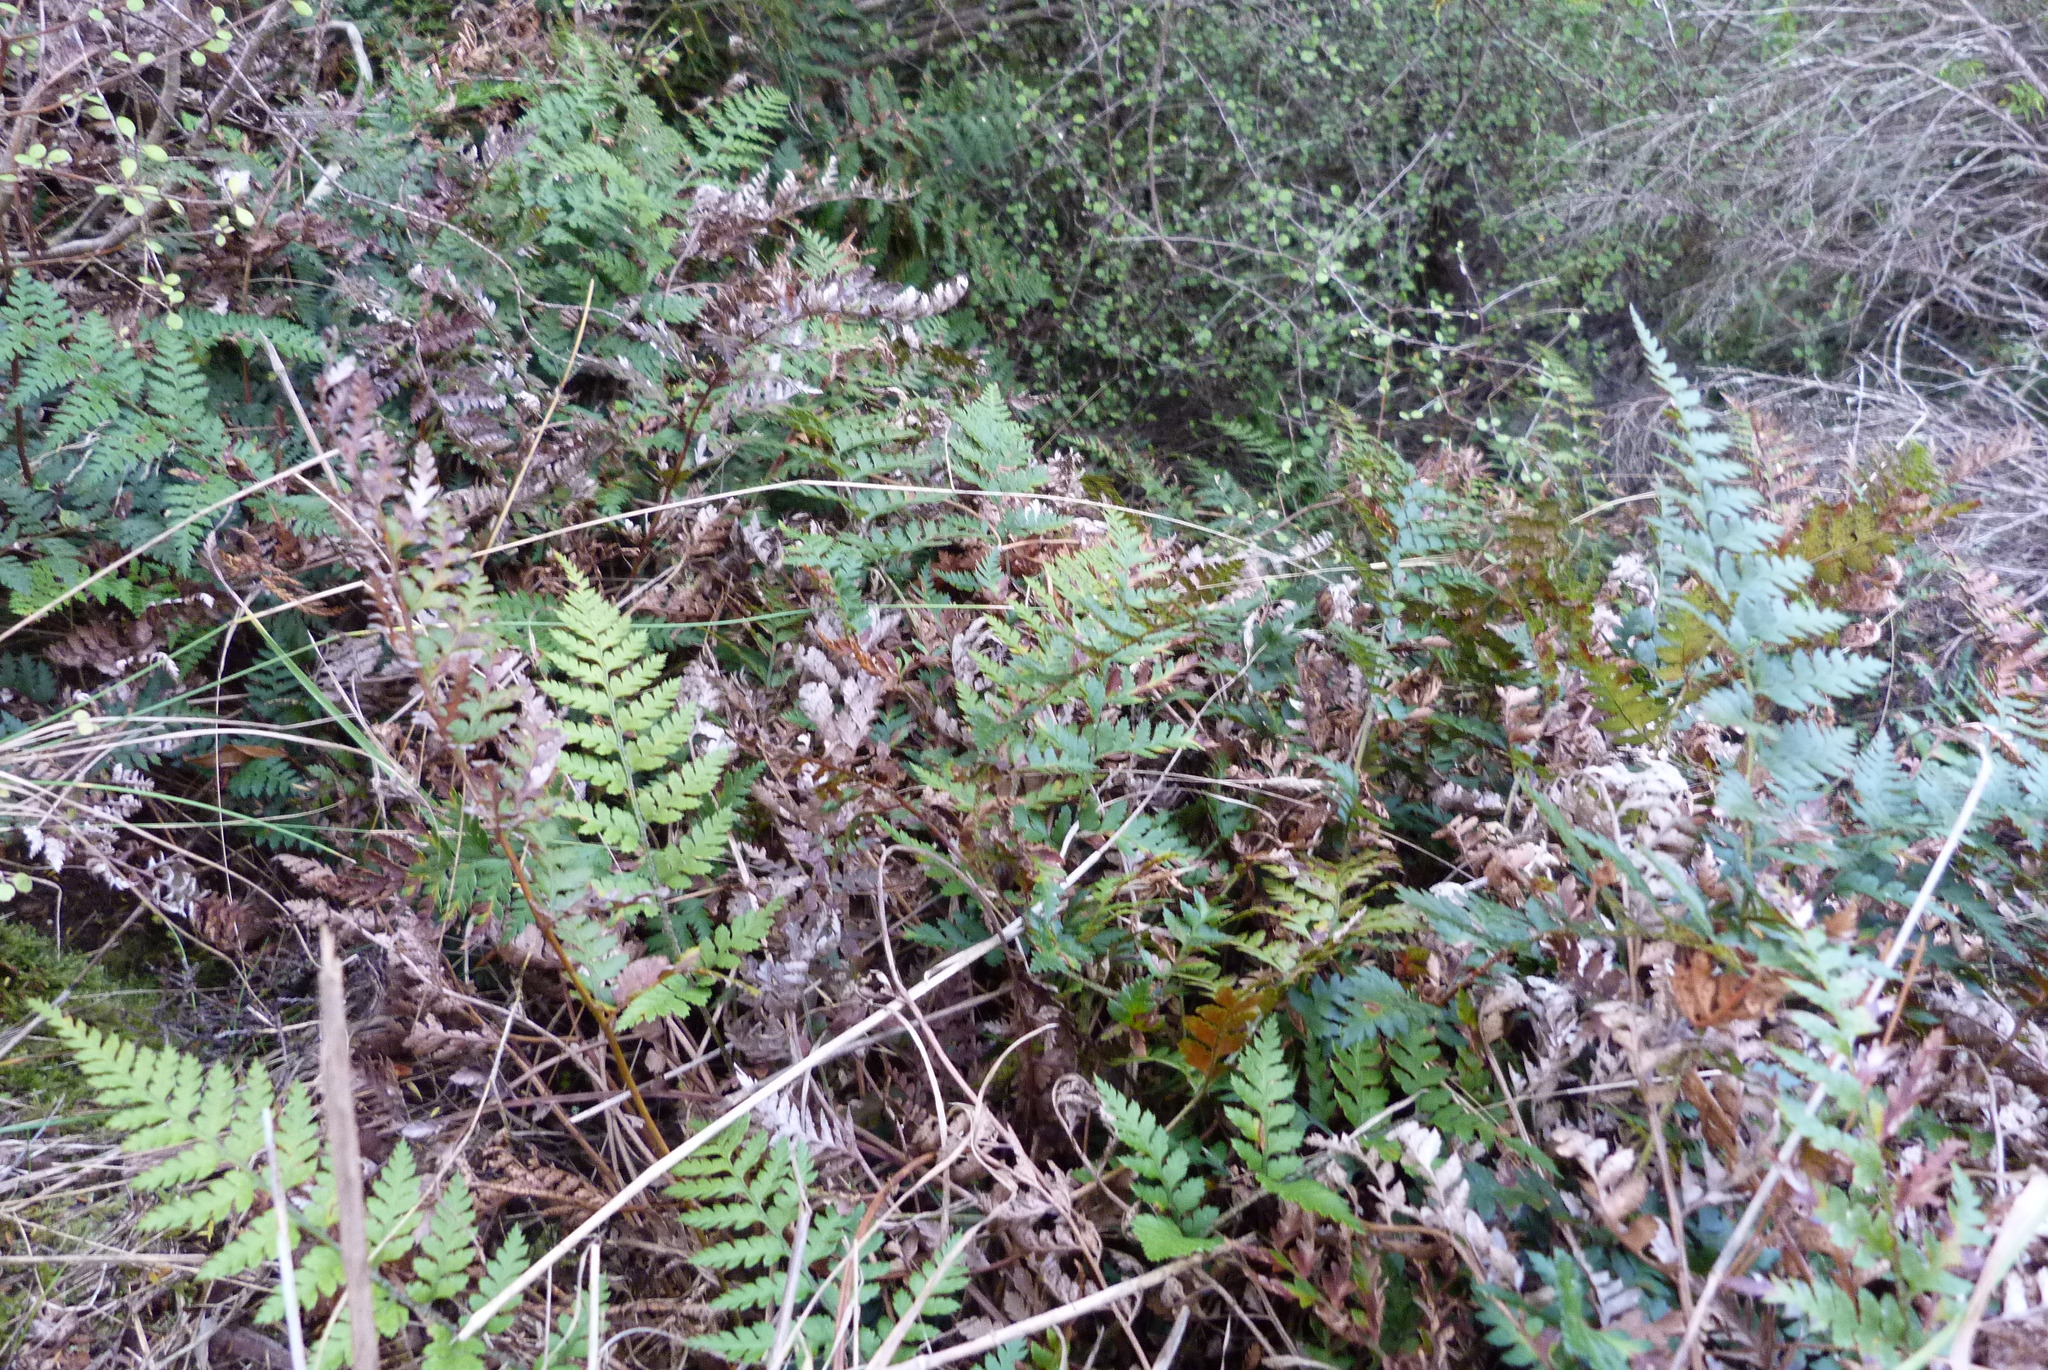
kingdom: Plantae
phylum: Tracheophyta
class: Polypodiopsida
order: Polypodiales
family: Dryopteridaceae
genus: Polystichum
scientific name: Polystichum oculatum
